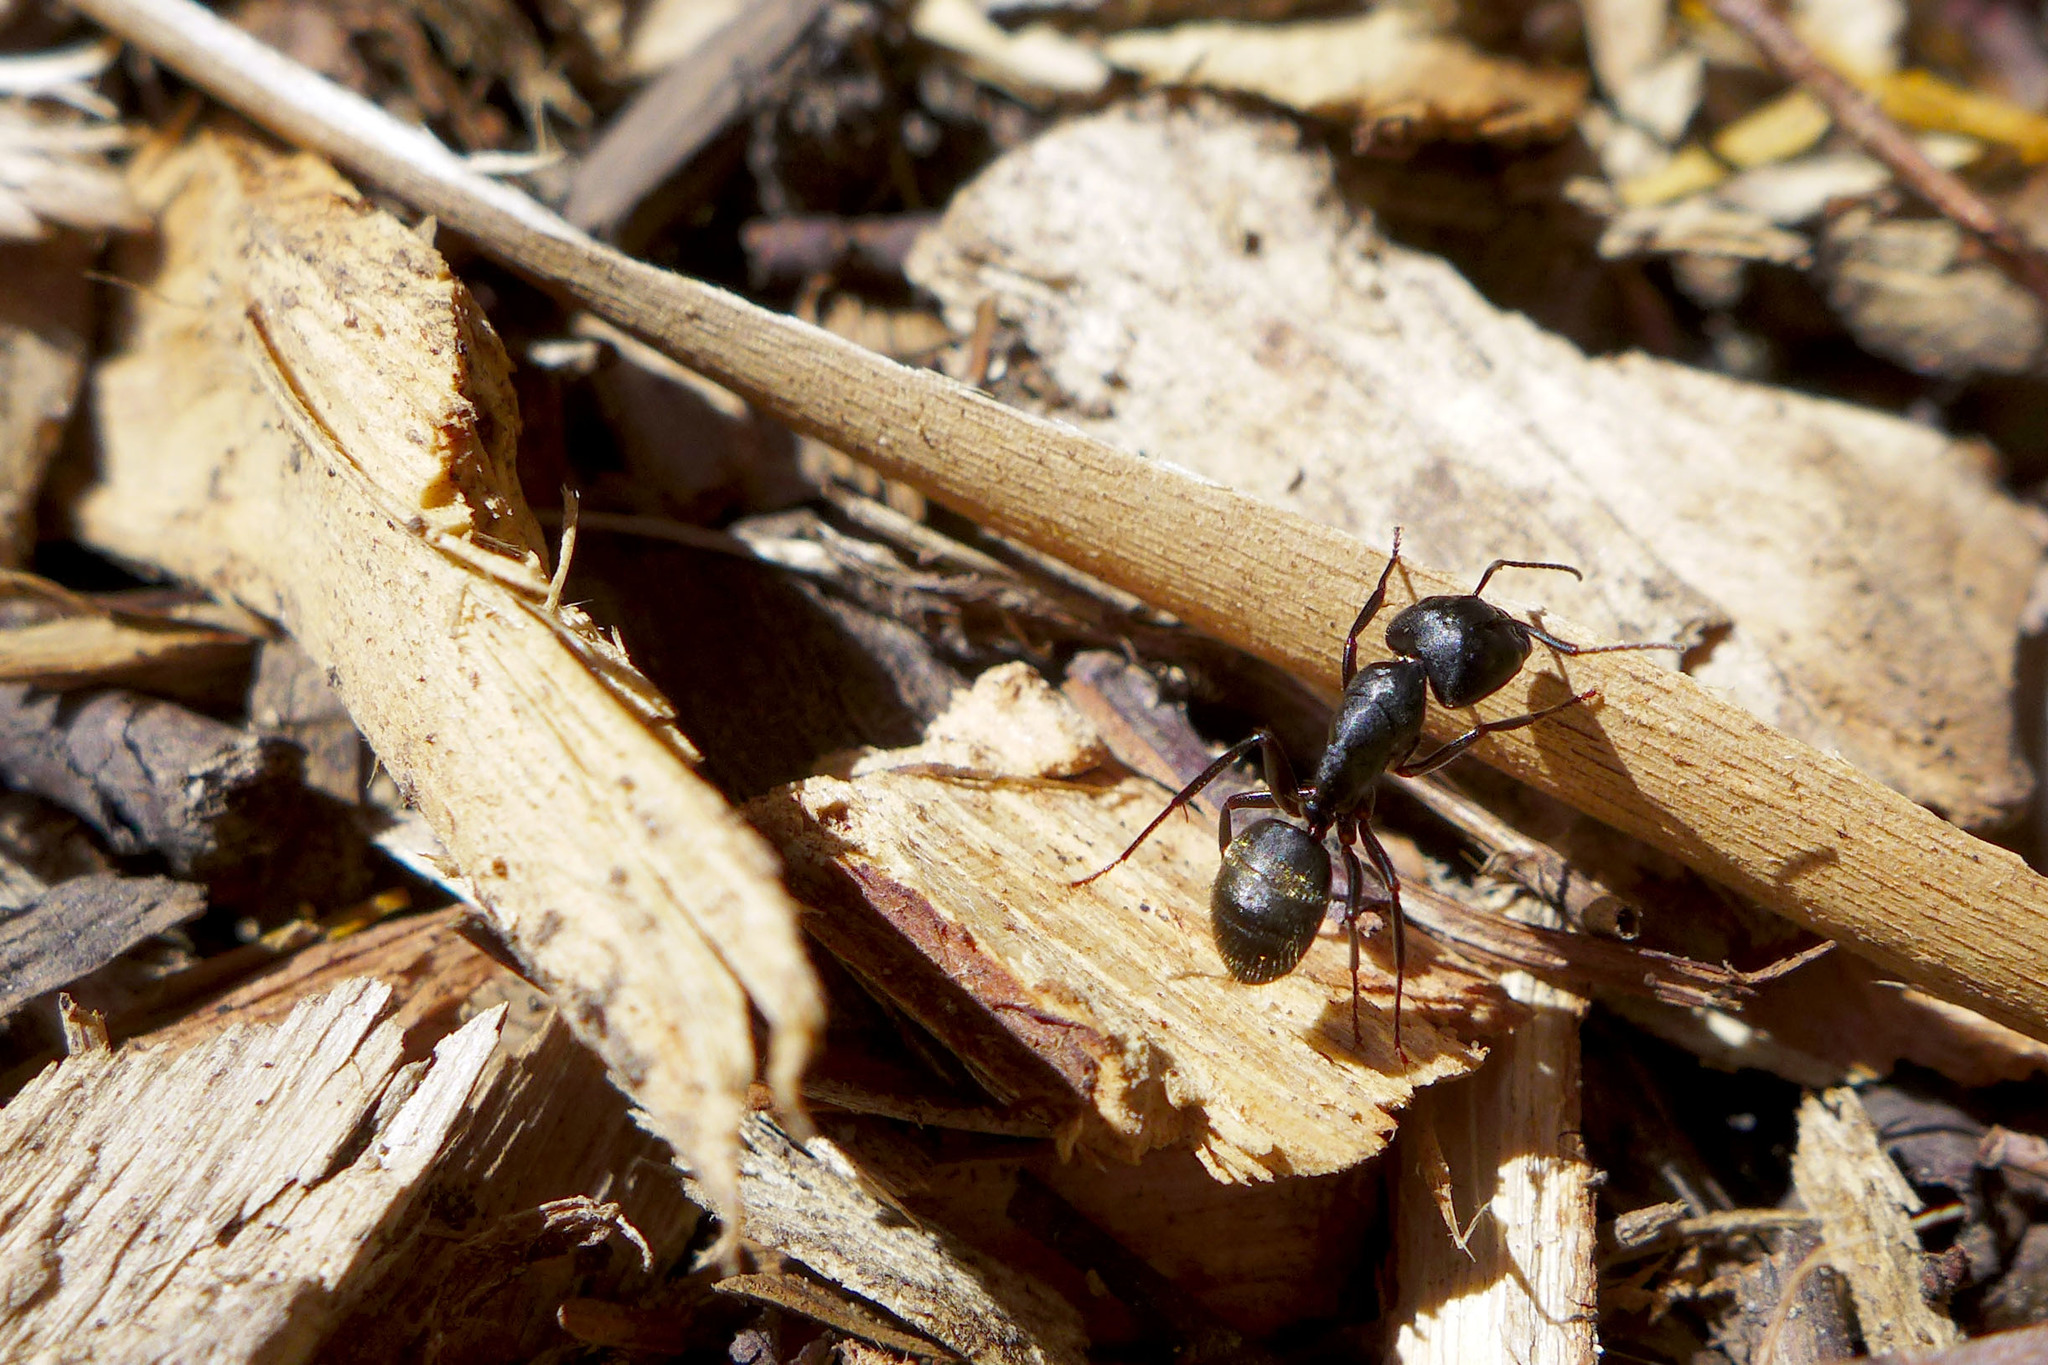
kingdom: Animalia
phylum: Arthropoda
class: Insecta
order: Hymenoptera
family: Formicidae
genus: Camponotus
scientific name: Camponotus pennsylvanicus
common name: Black carpenter ant
